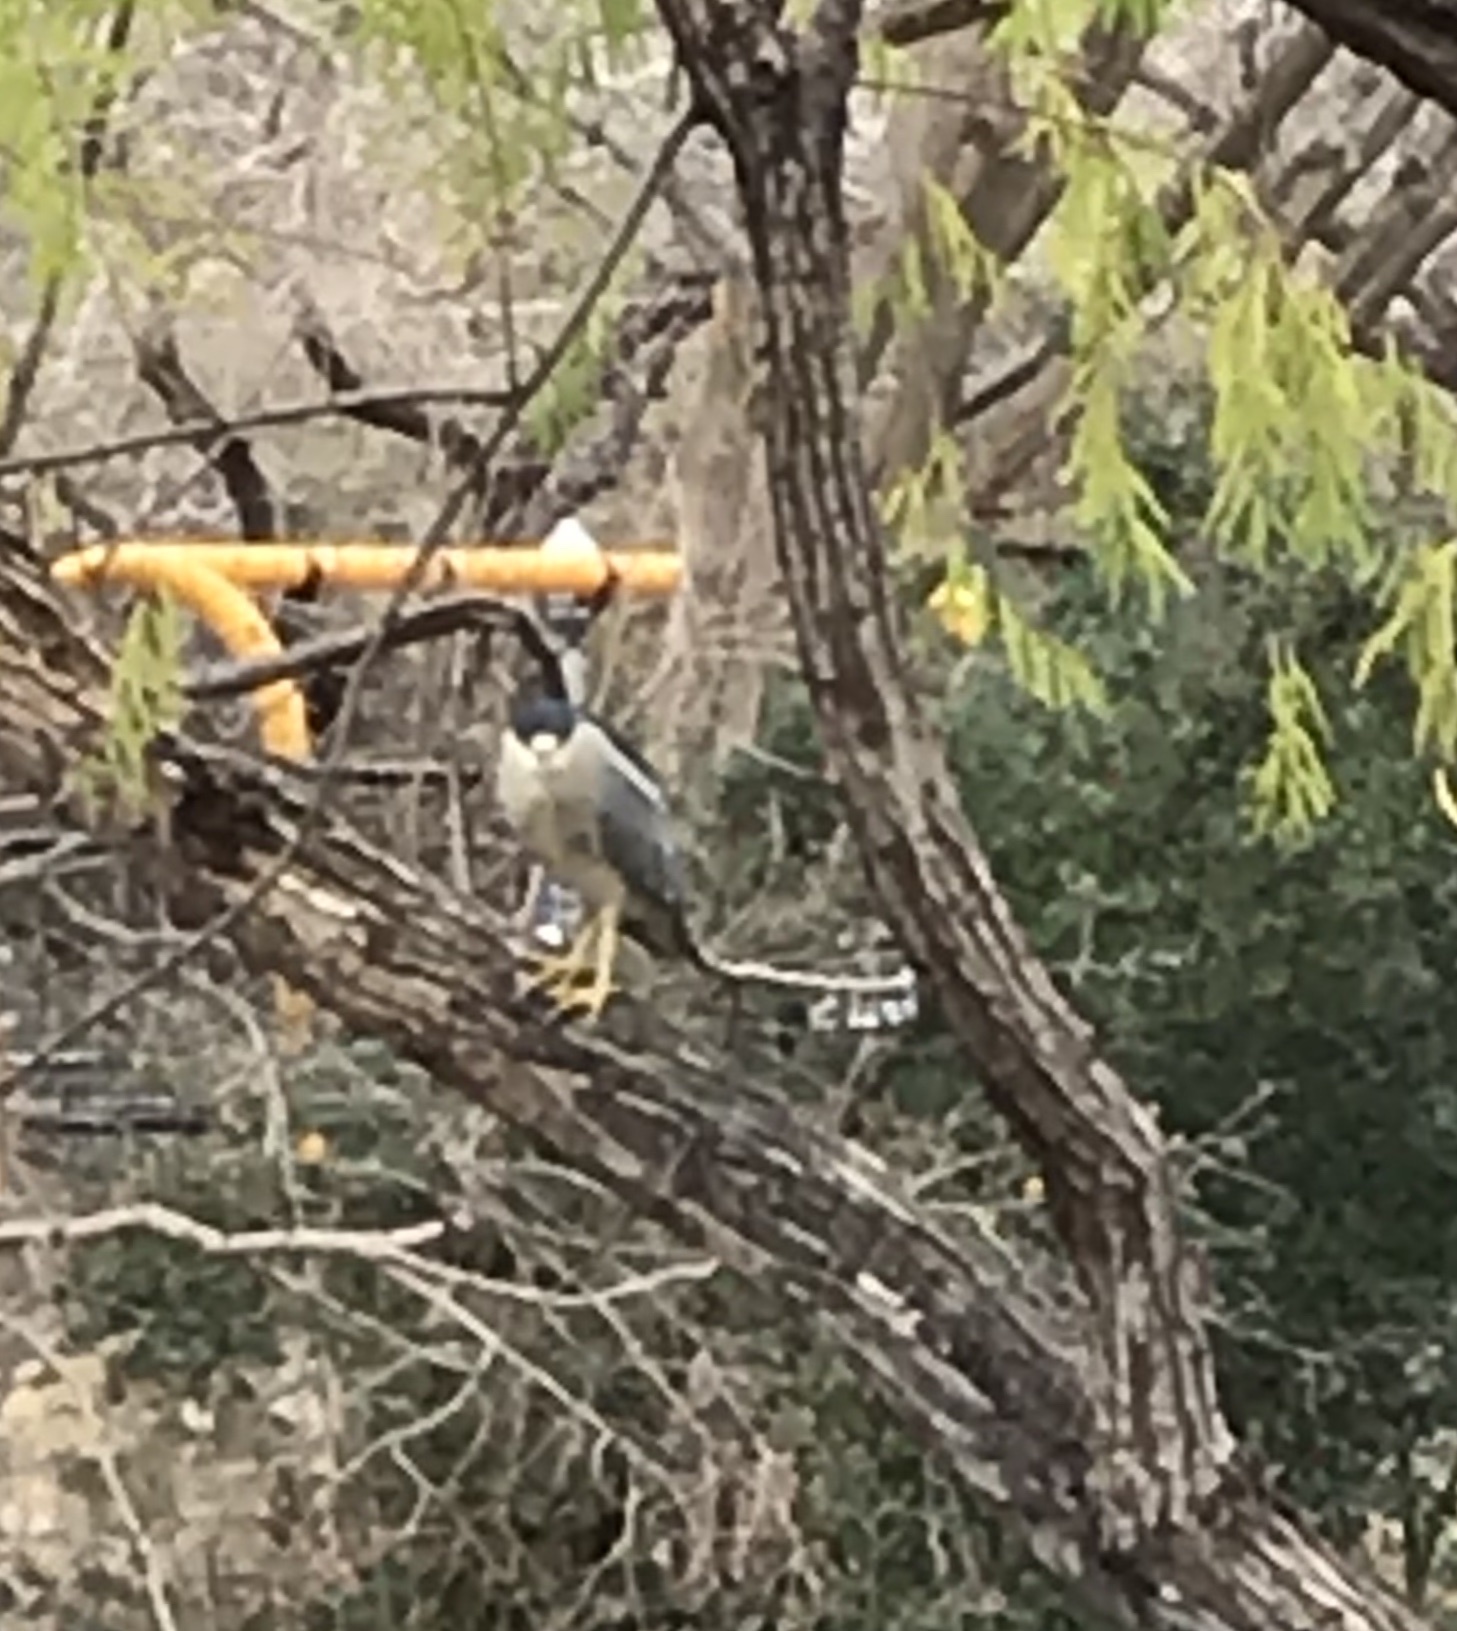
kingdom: Animalia
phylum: Chordata
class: Aves
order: Pelecaniformes
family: Ardeidae
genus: Nycticorax
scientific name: Nycticorax nycticorax
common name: Black-crowned night heron
